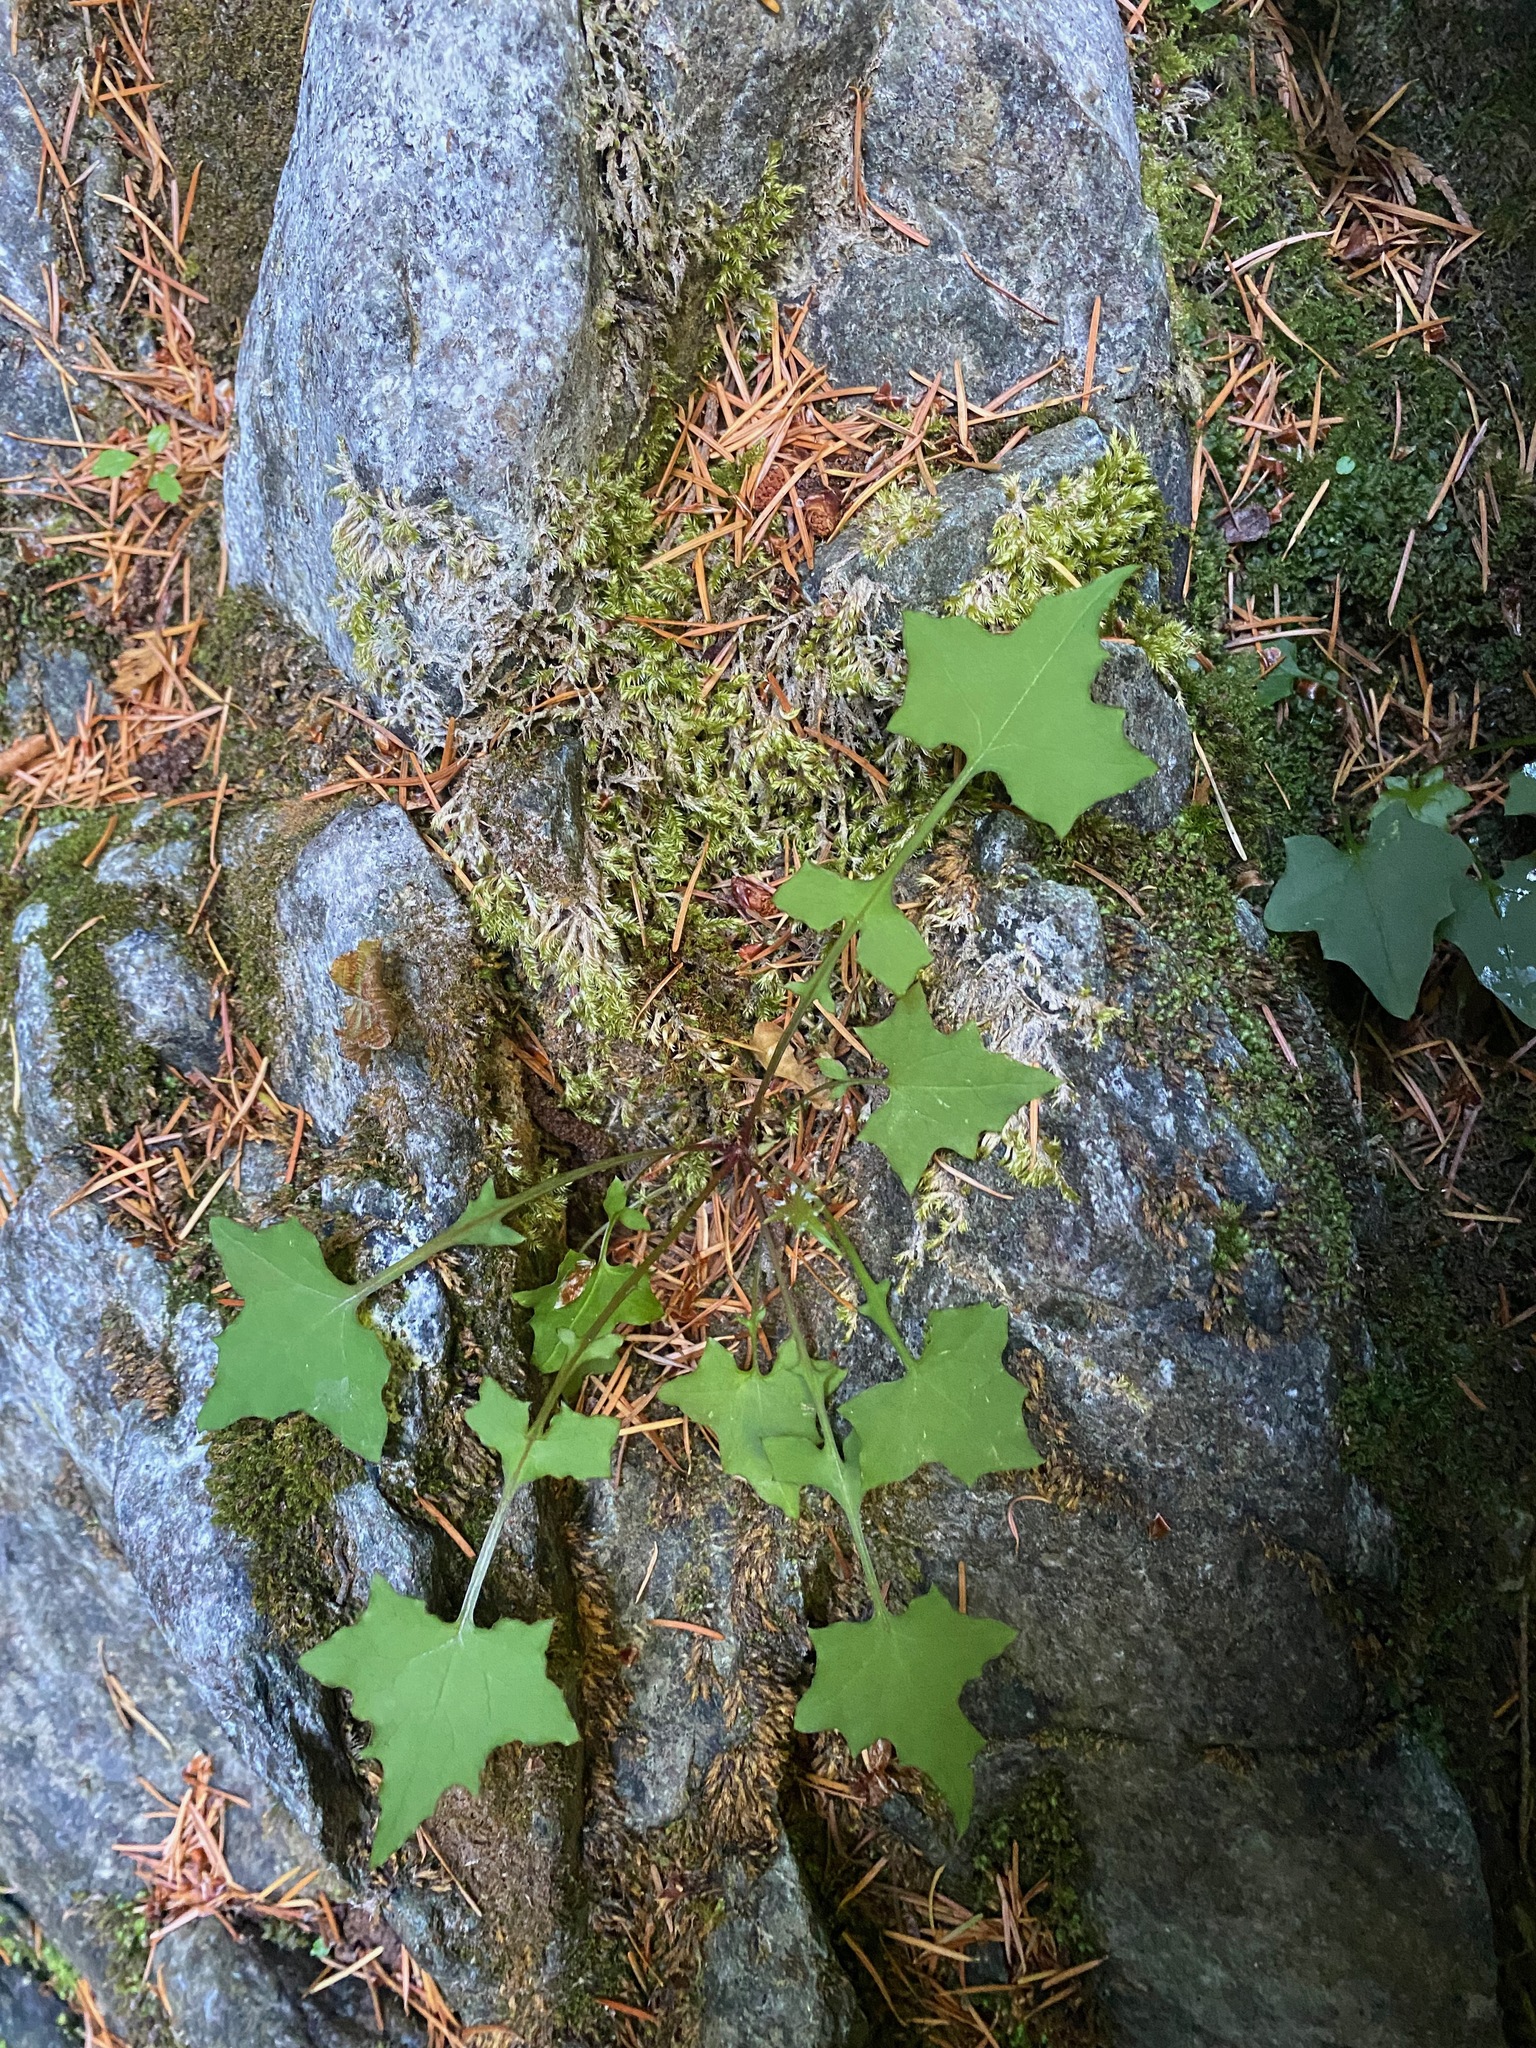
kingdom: Plantae
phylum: Tracheophyta
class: Magnoliopsida
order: Asterales
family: Asteraceae
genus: Mycelis
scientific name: Mycelis muralis
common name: Wall lettuce
